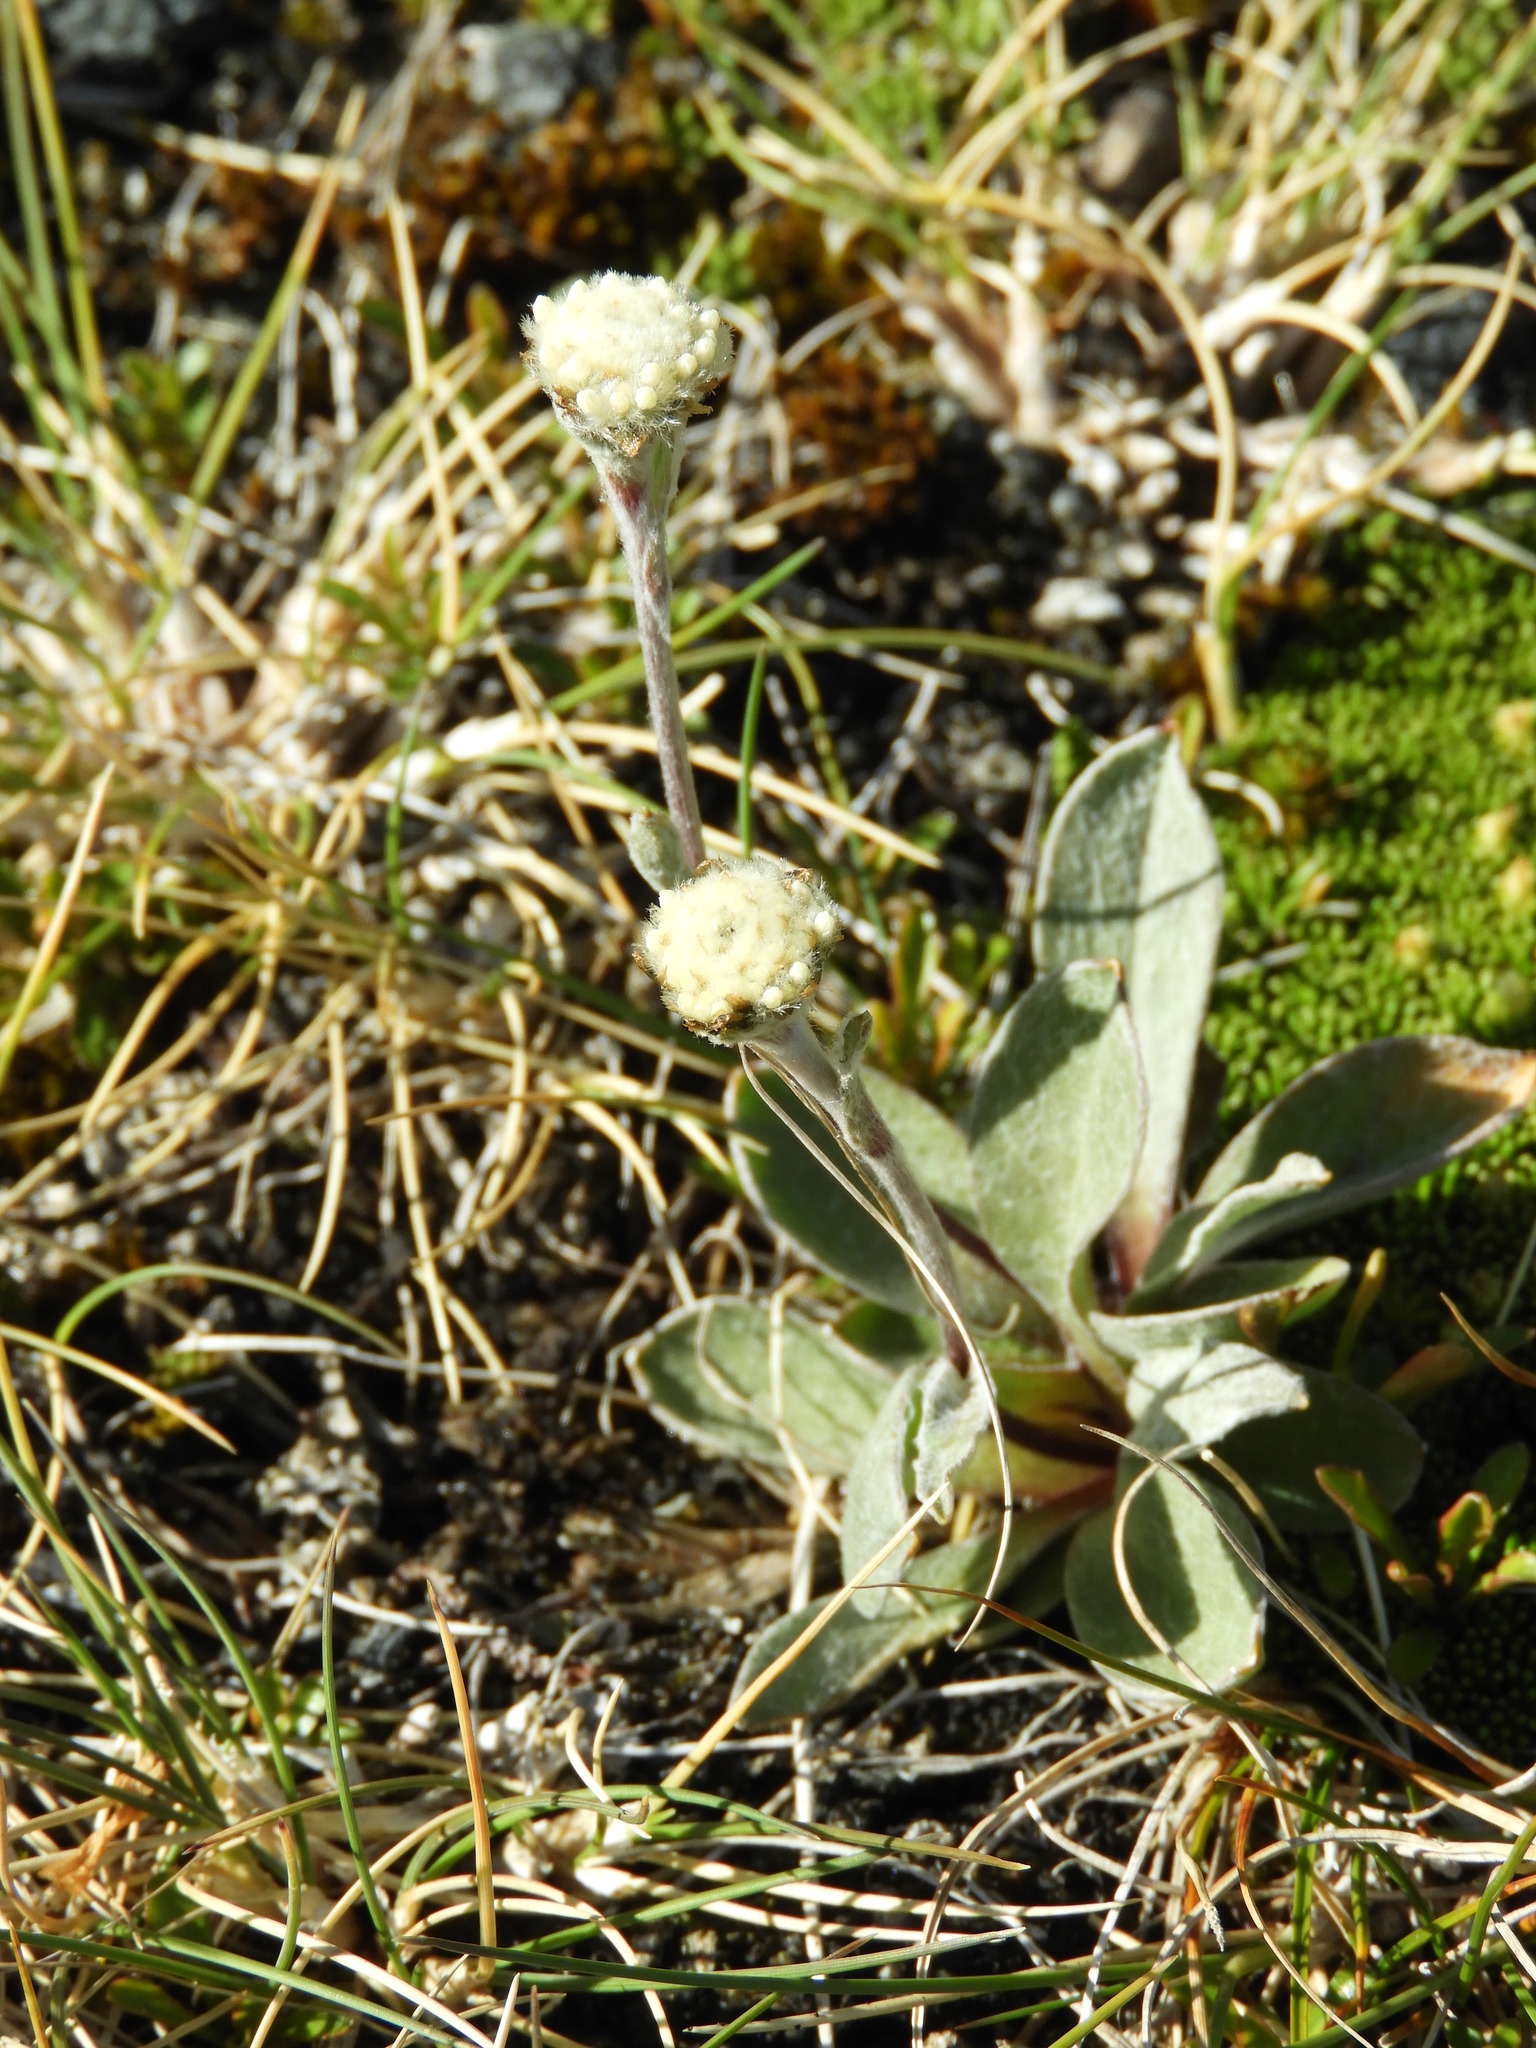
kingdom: Plantae
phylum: Tracheophyta
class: Magnoliopsida
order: Asterales
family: Asteraceae
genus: Craspedia
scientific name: Craspedia uniflora
